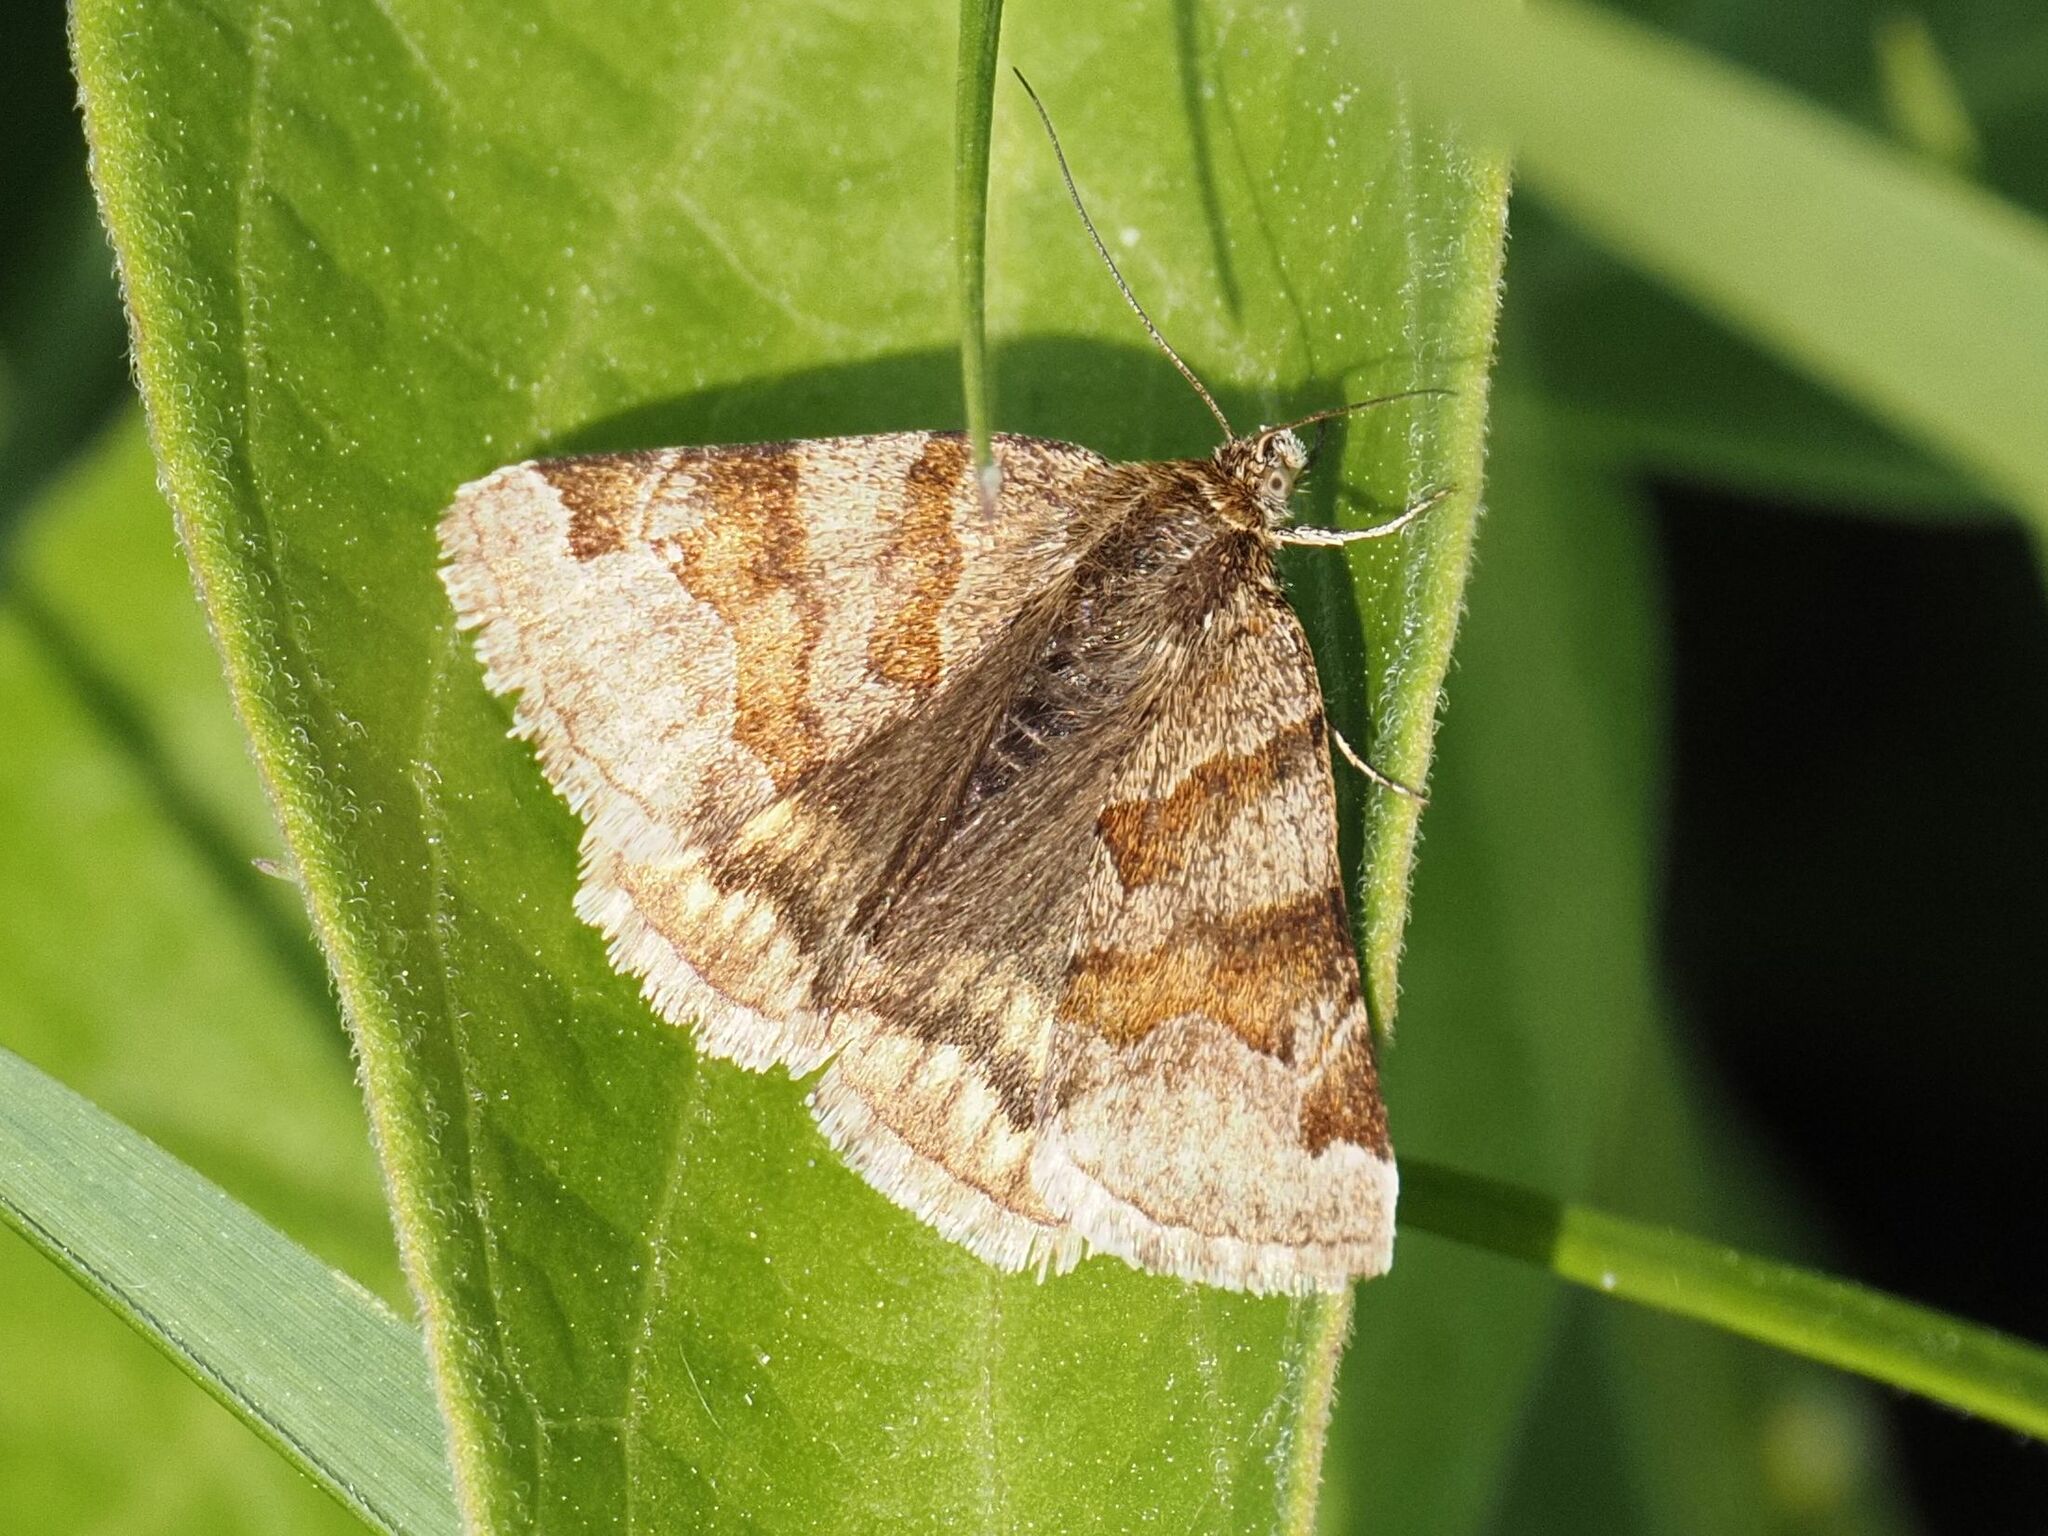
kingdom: Animalia
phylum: Arthropoda
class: Insecta
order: Lepidoptera
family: Erebidae
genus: Euclidia
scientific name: Euclidia glyphica
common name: Burnet companion
